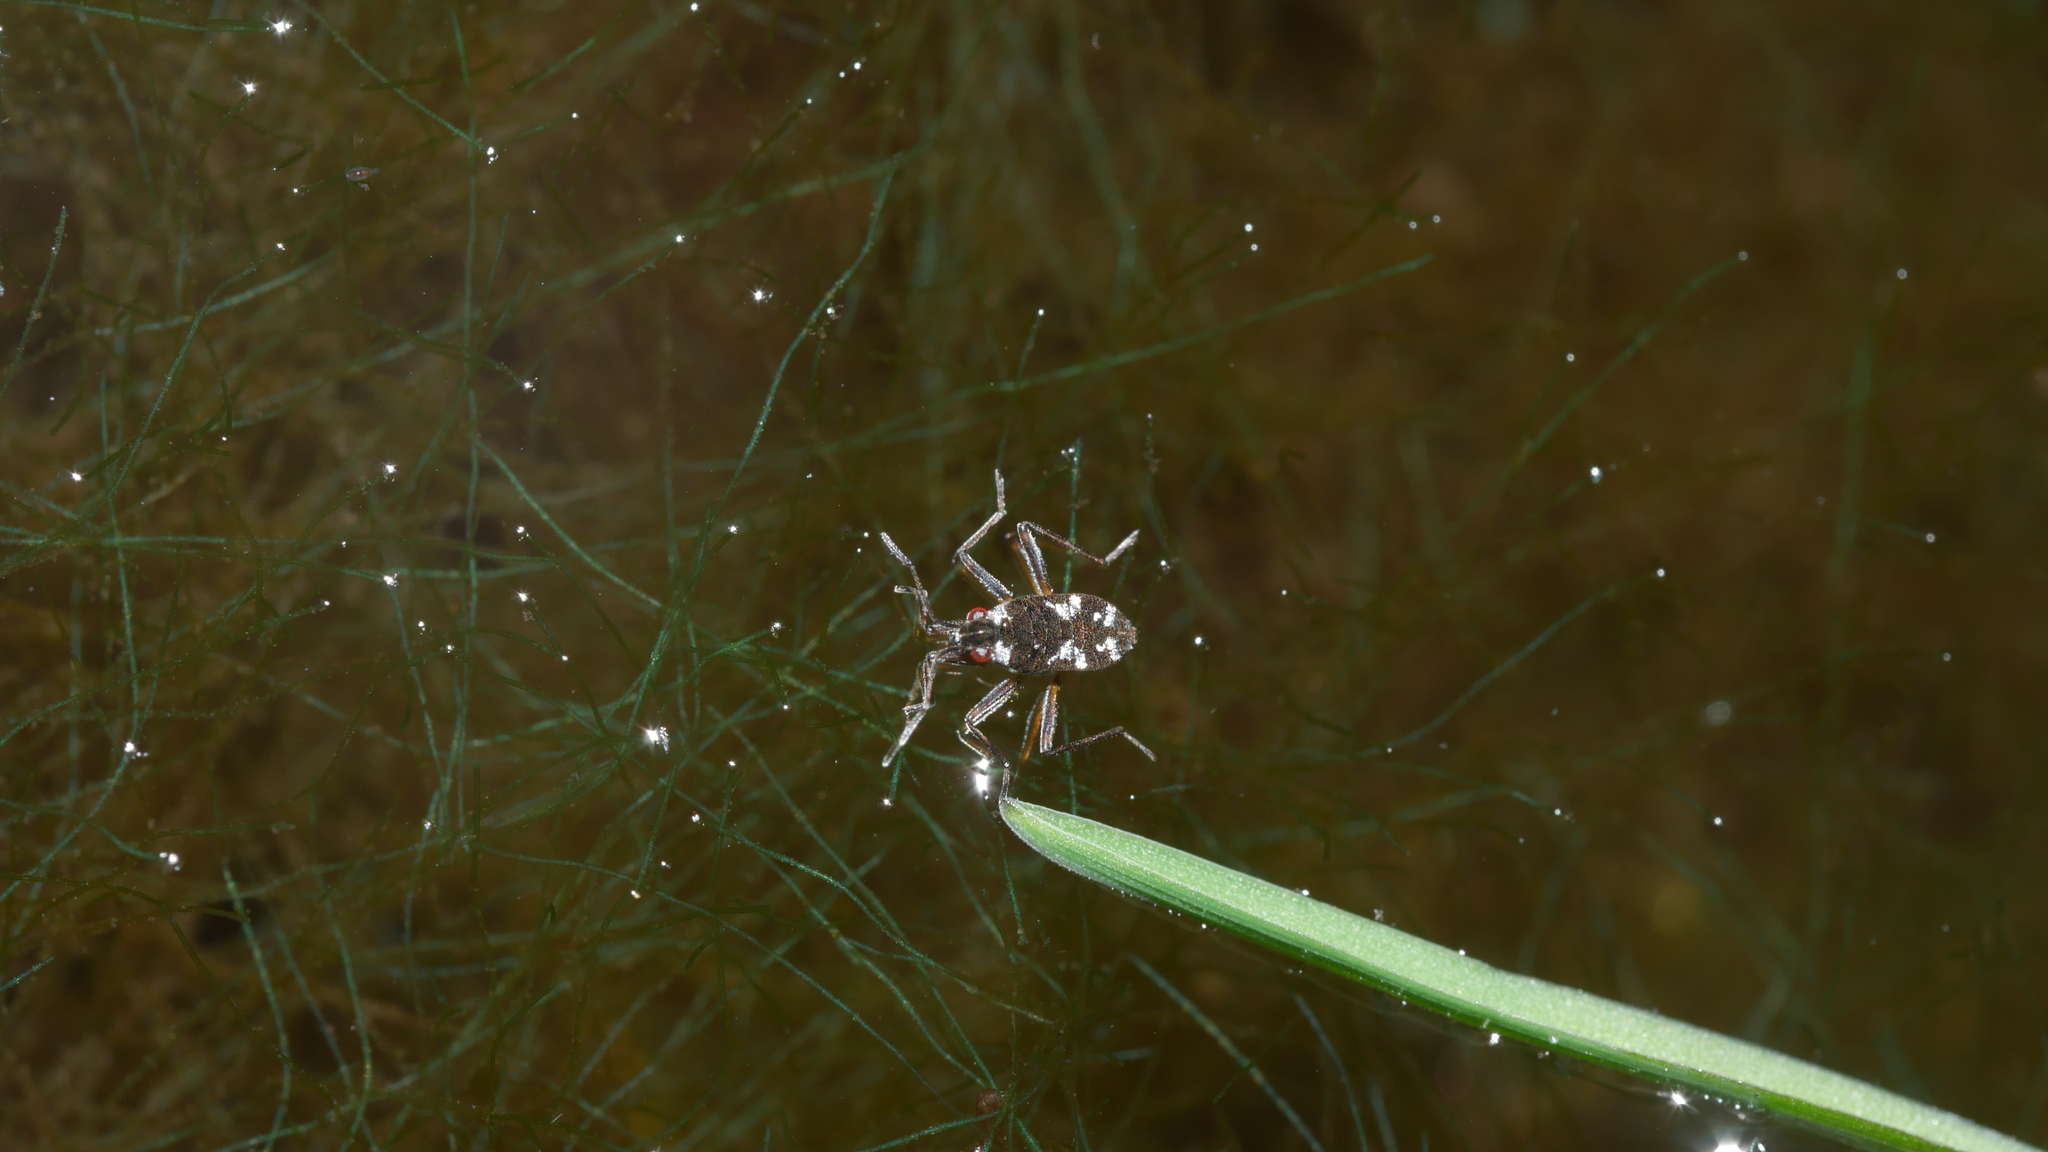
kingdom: Animalia
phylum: Arthropoda
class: Insecta
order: Hemiptera
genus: Kirkaldya
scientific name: Kirkaldya
